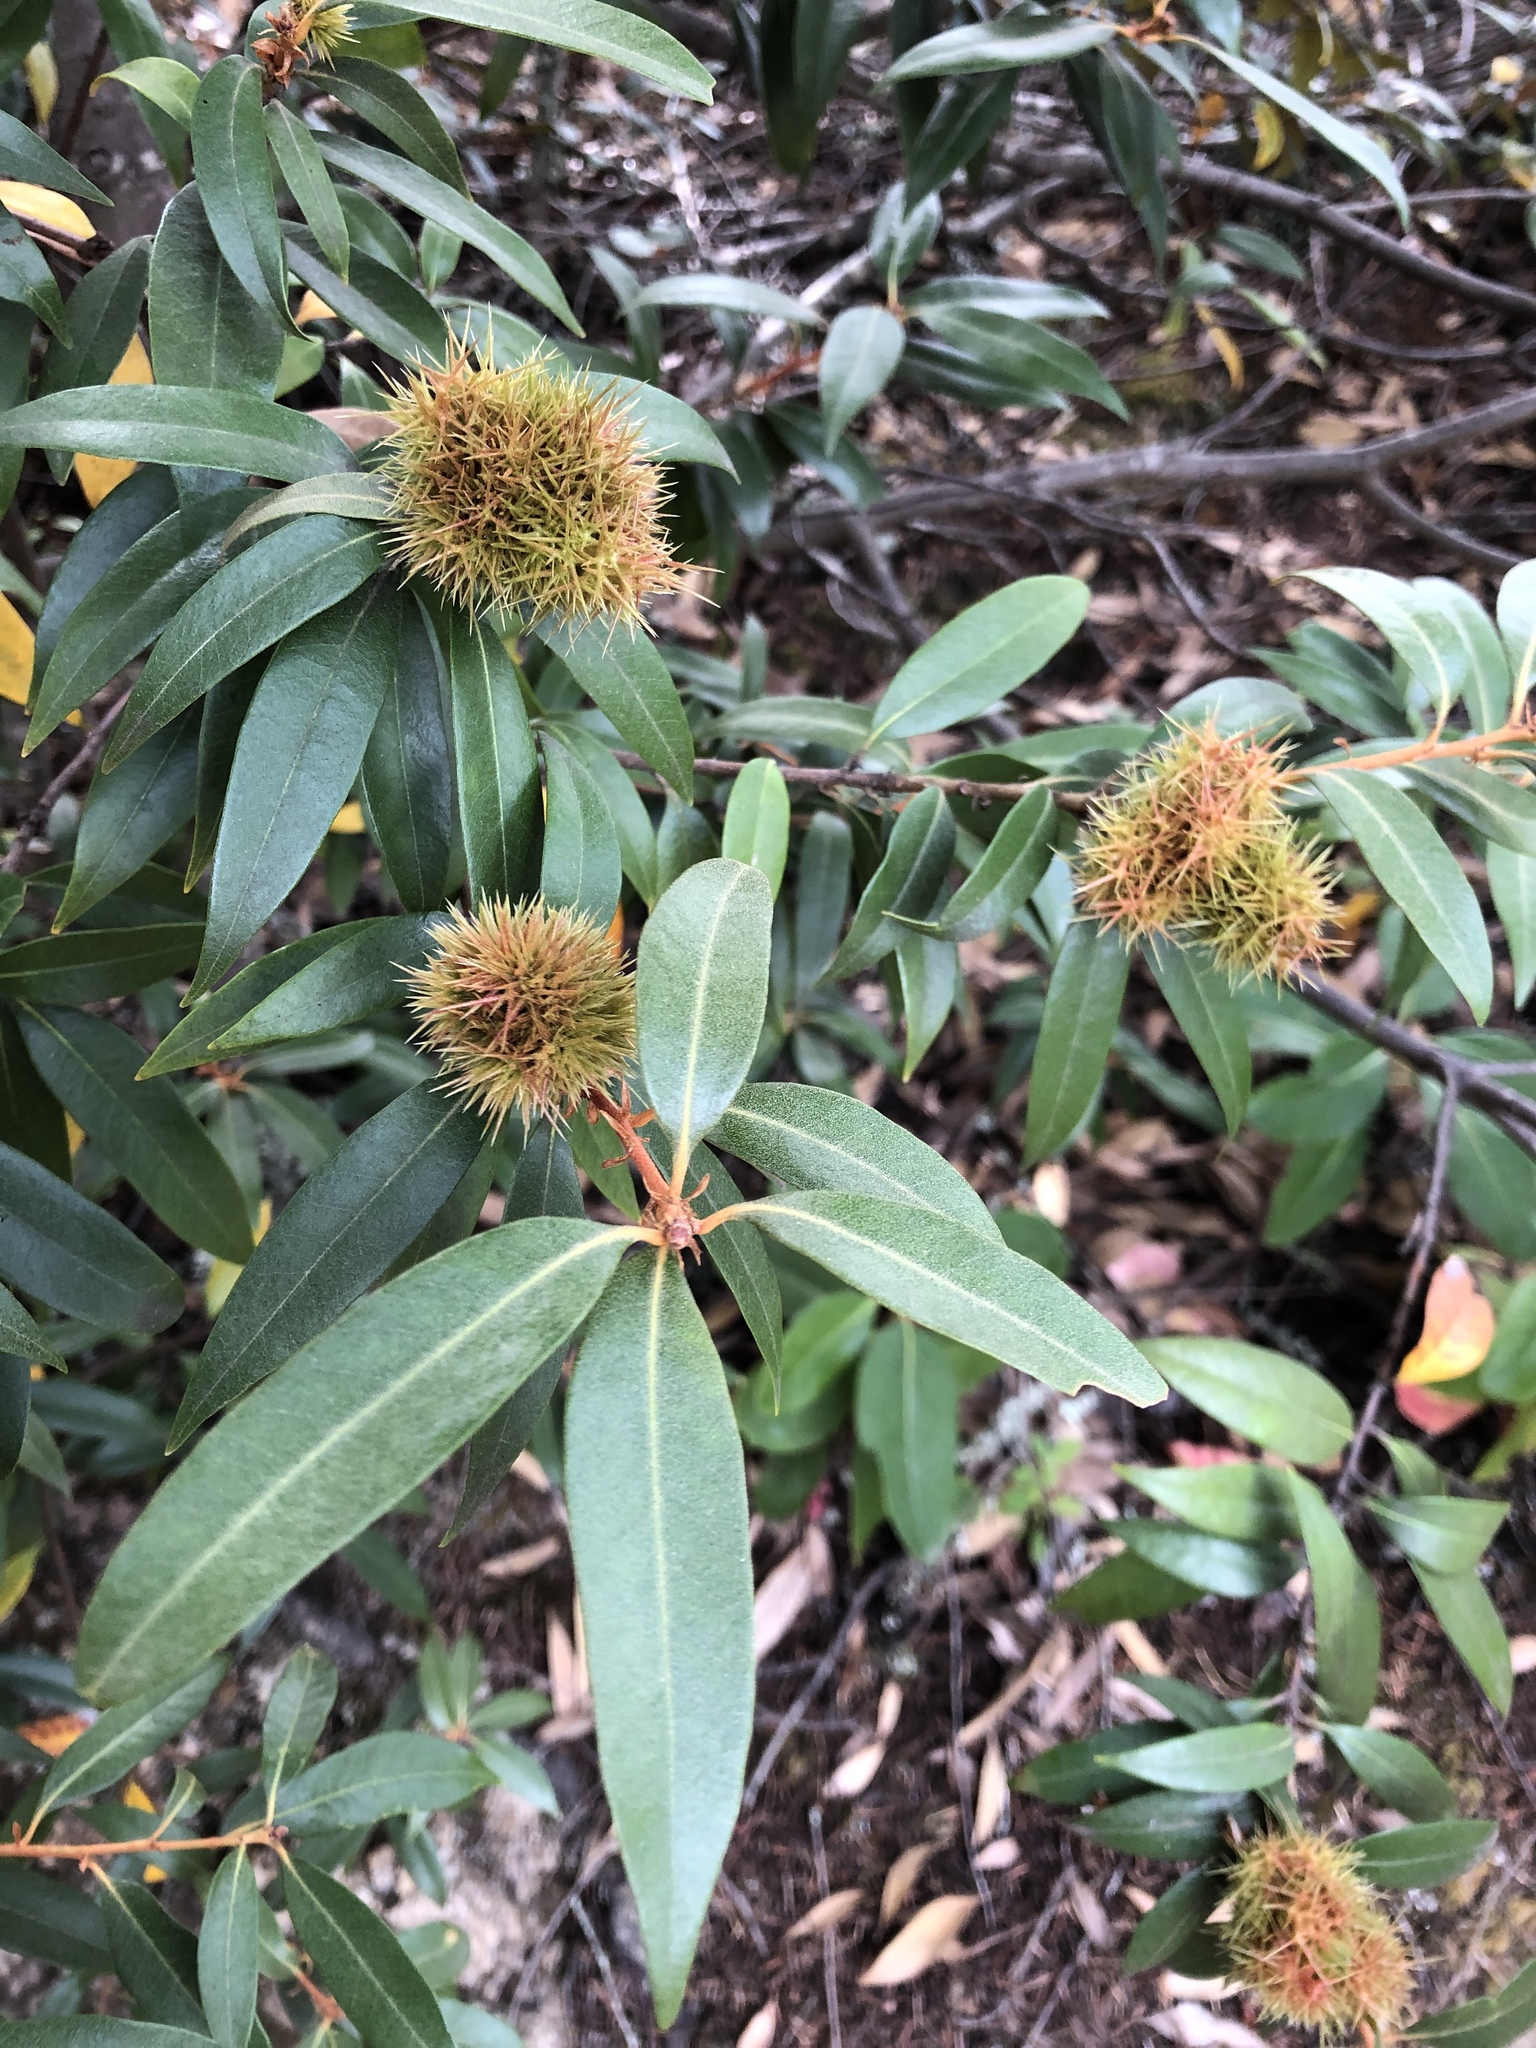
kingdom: Plantae
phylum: Tracheophyta
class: Magnoliopsida
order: Fagales
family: Fagaceae
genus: Chrysolepis
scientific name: Chrysolepis chrysophylla
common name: Giant chinquapin
